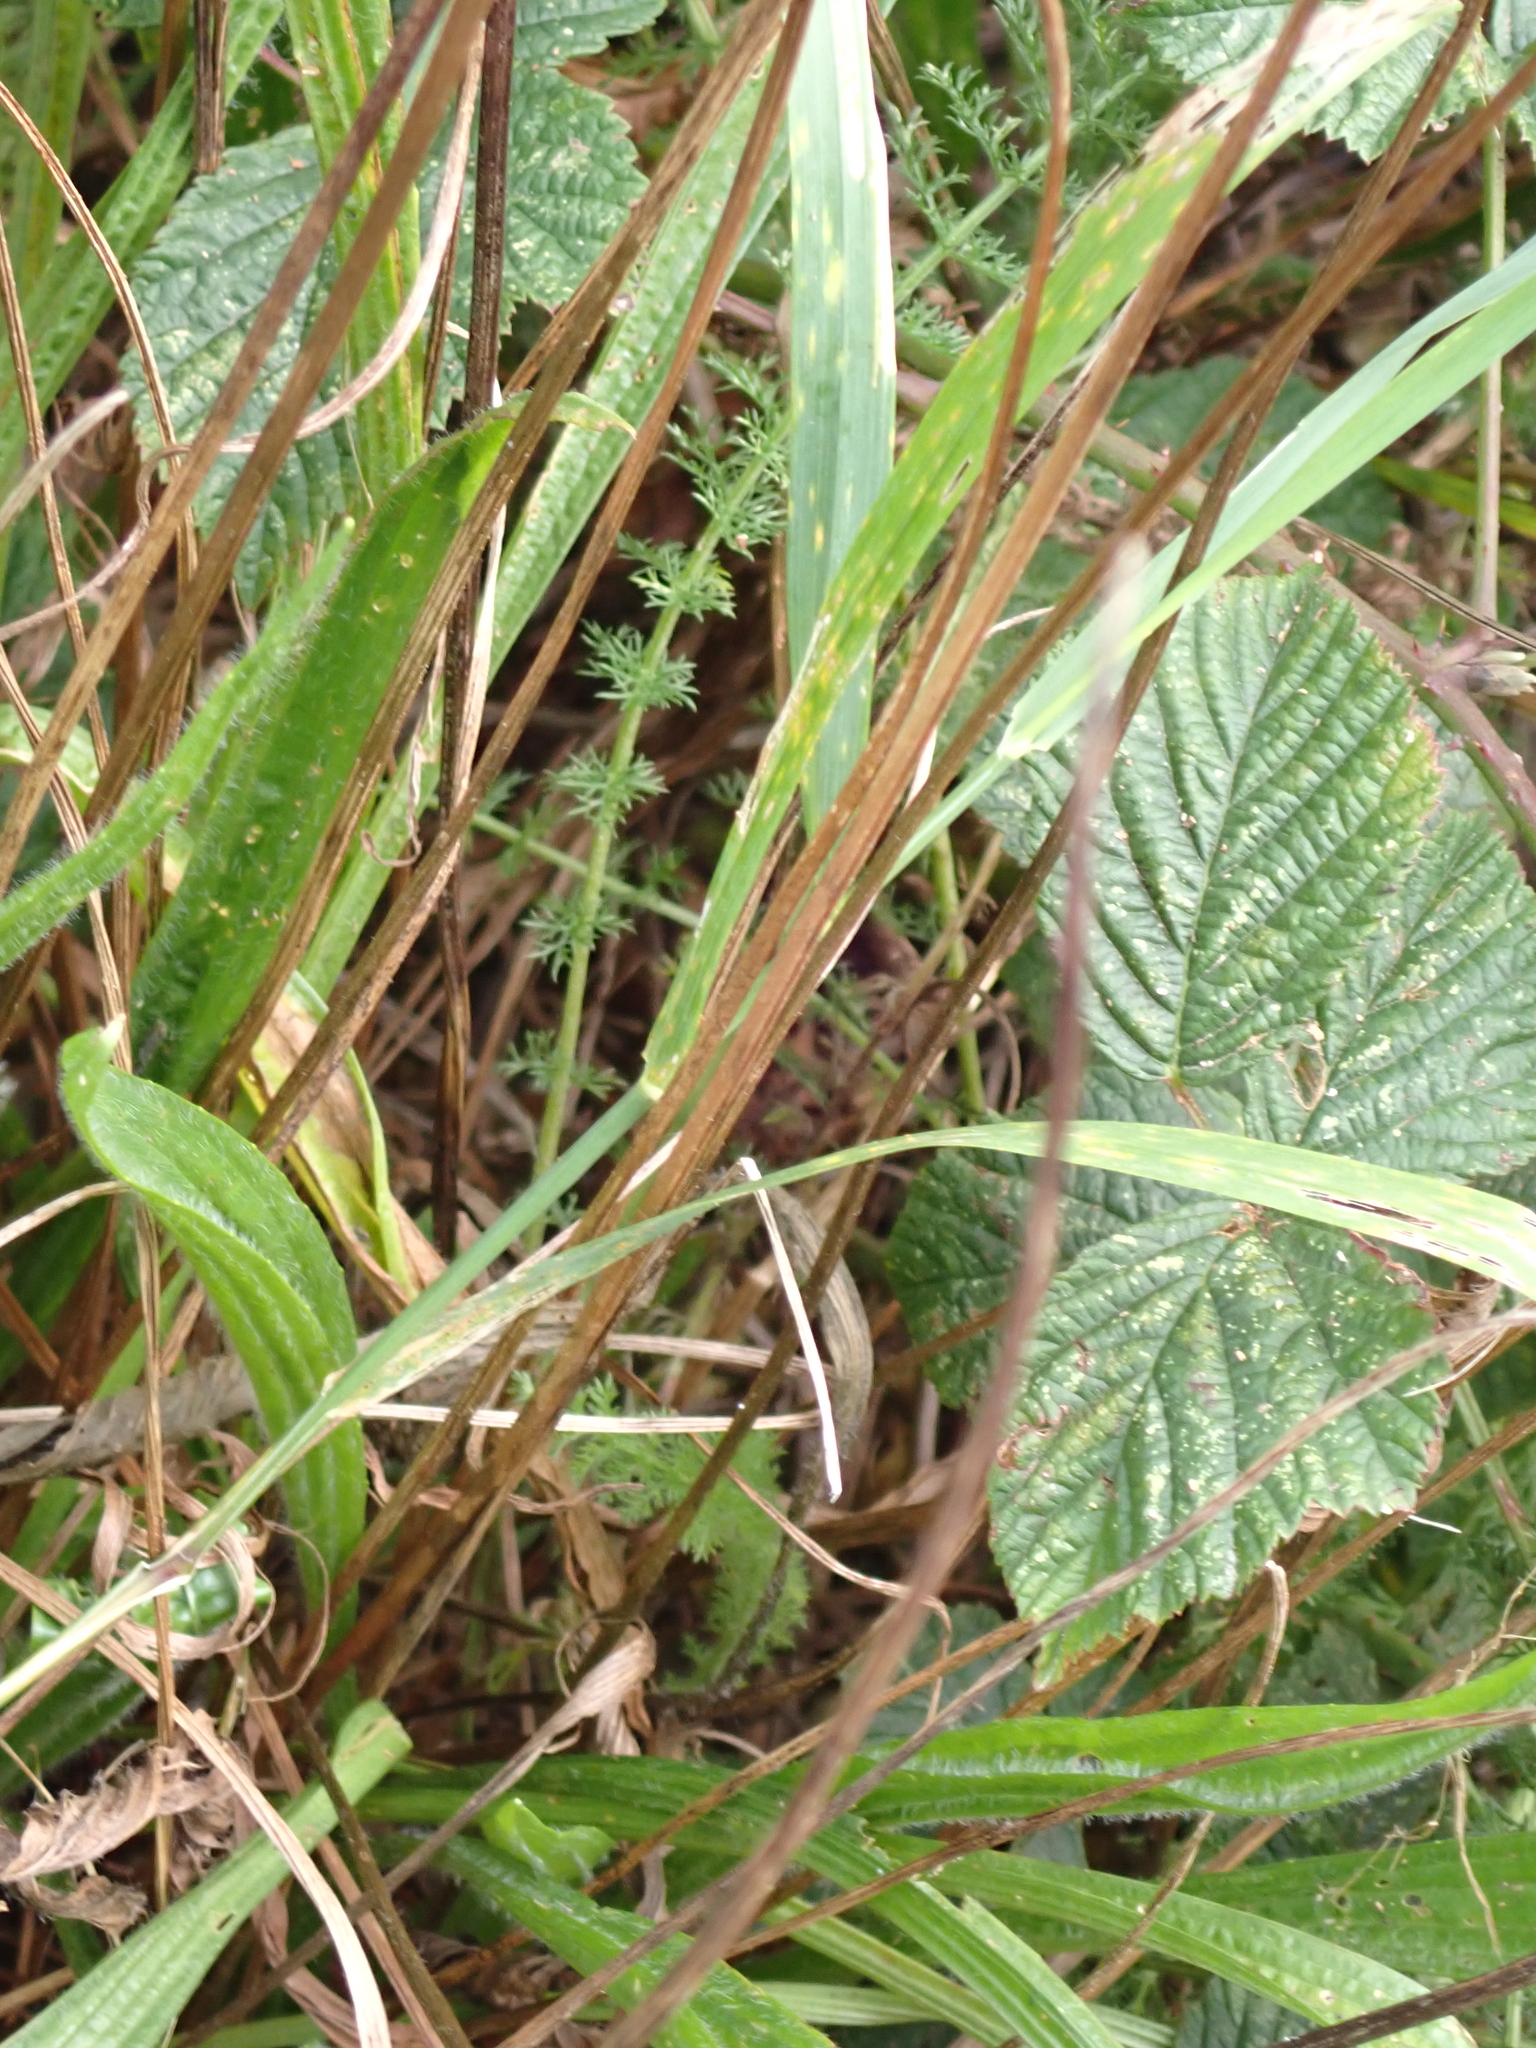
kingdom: Plantae
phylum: Tracheophyta
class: Magnoliopsida
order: Lamiales
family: Plantaginaceae
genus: Plantago
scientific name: Plantago lanceolata
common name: Ribwort plantain
